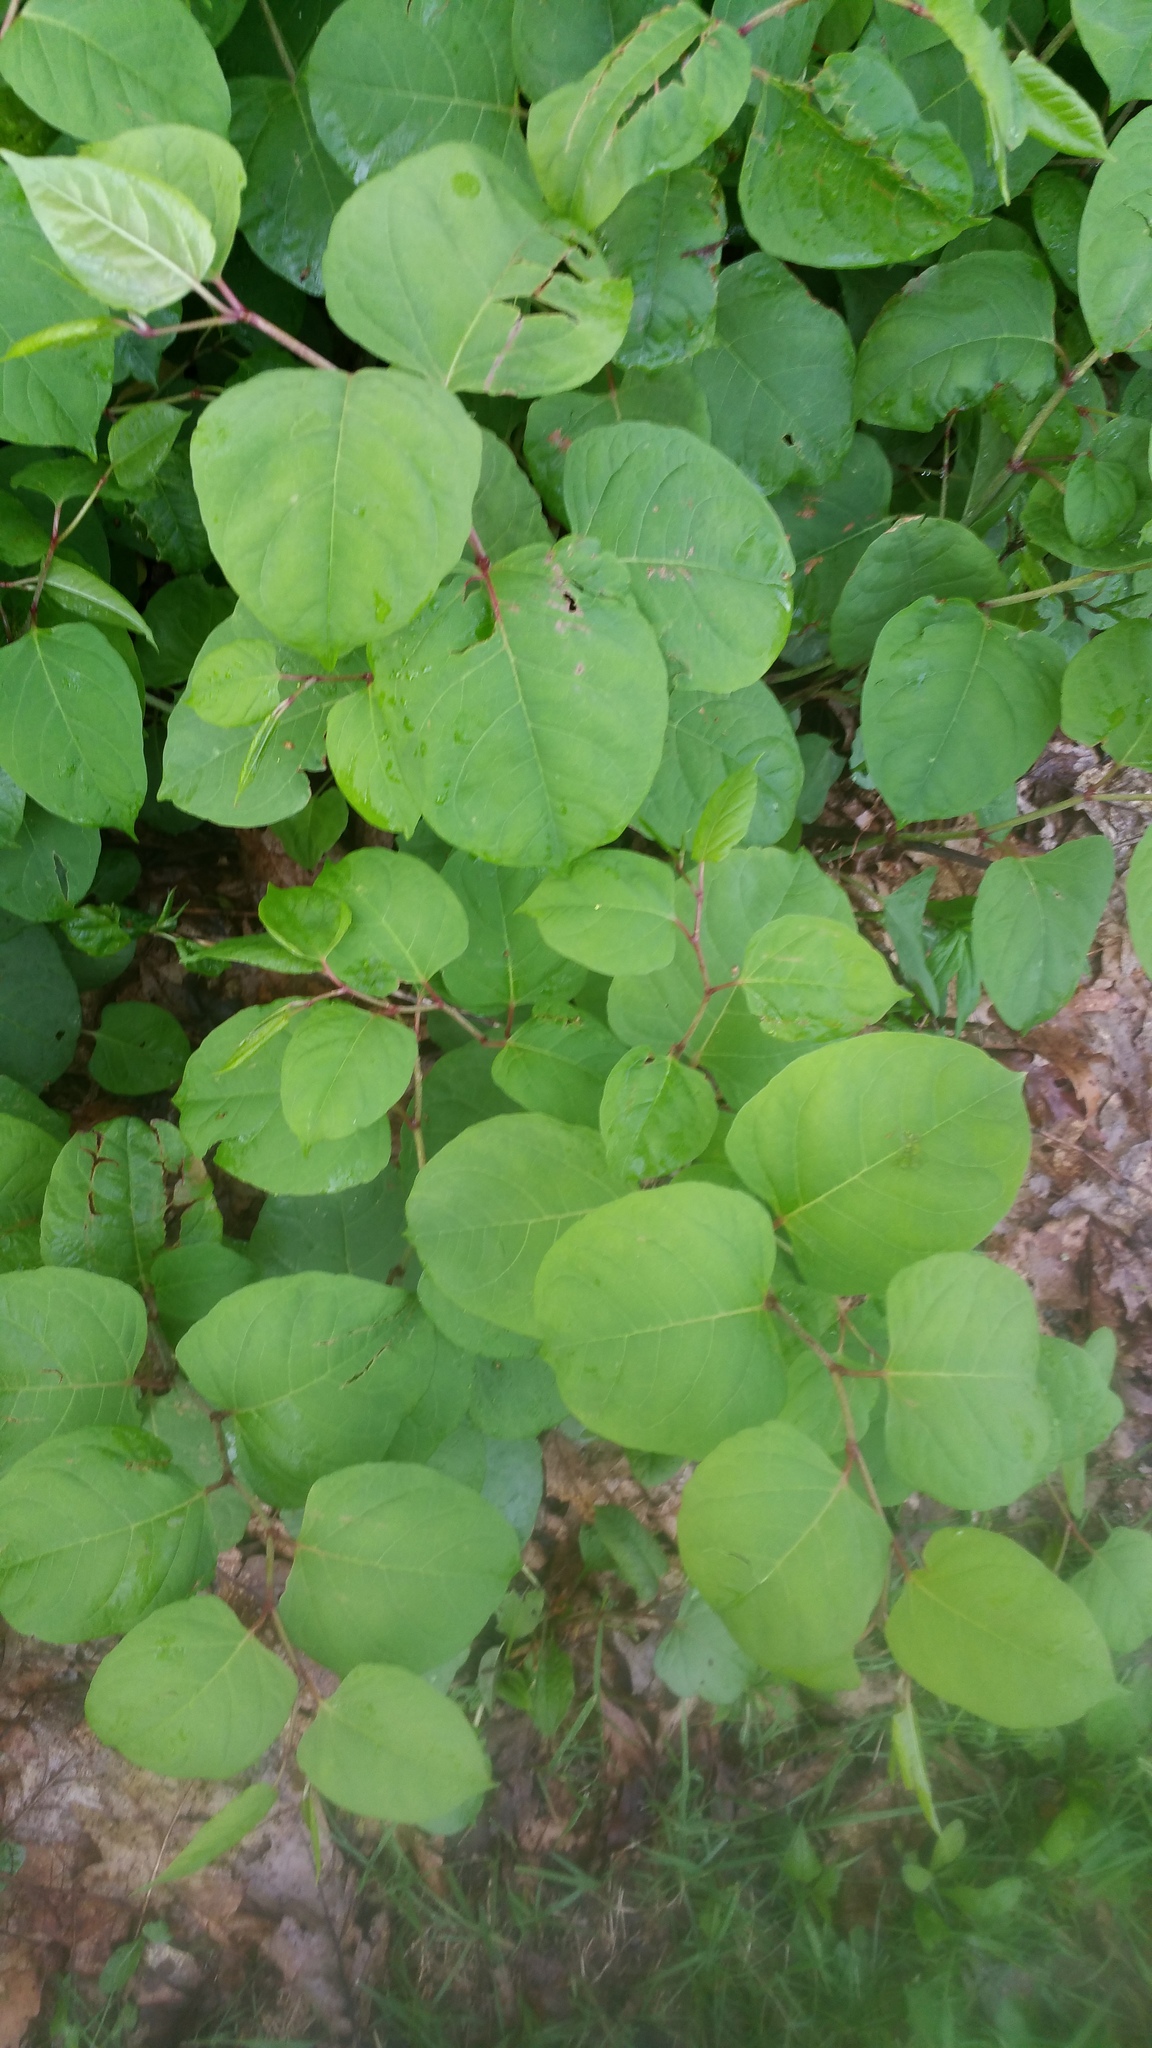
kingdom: Plantae
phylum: Tracheophyta
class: Magnoliopsida
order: Caryophyllales
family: Polygonaceae
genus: Reynoutria
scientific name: Reynoutria japonica
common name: Japanese knotweed
